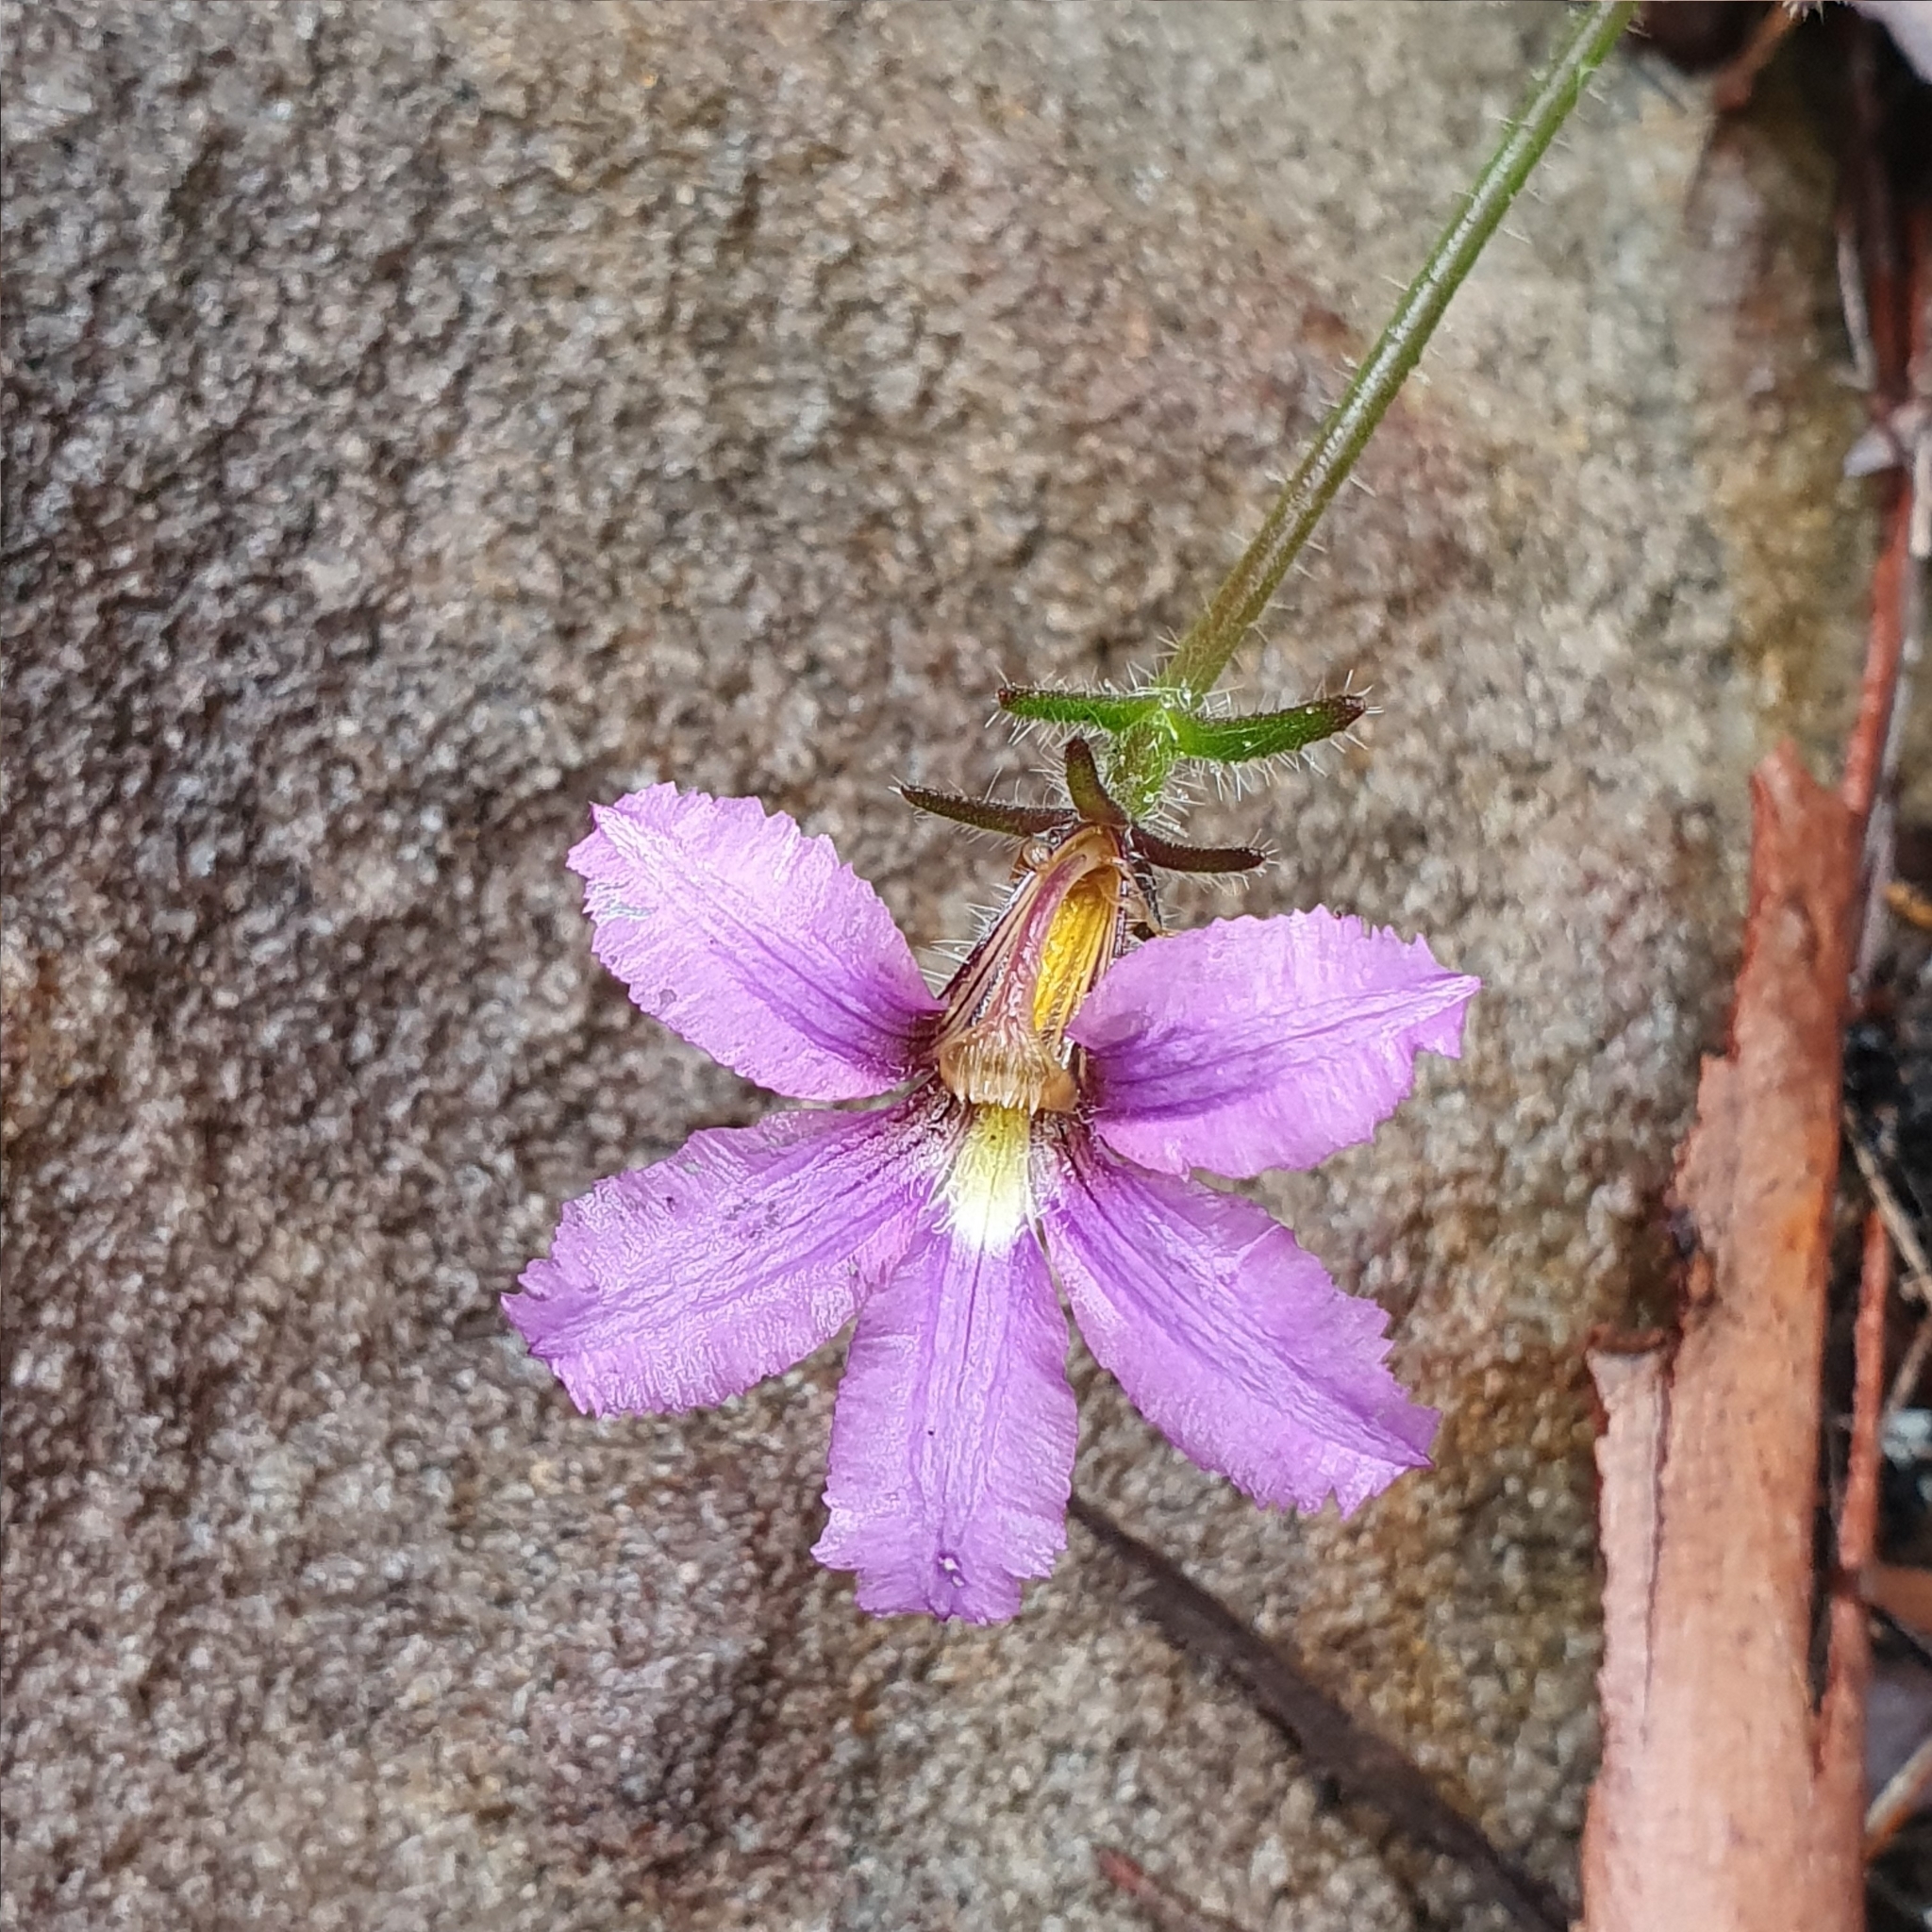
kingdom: Plantae
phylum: Tracheophyta
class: Magnoliopsida
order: Asterales
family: Goodeniaceae
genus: Scaevola
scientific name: Scaevola ramosissima
